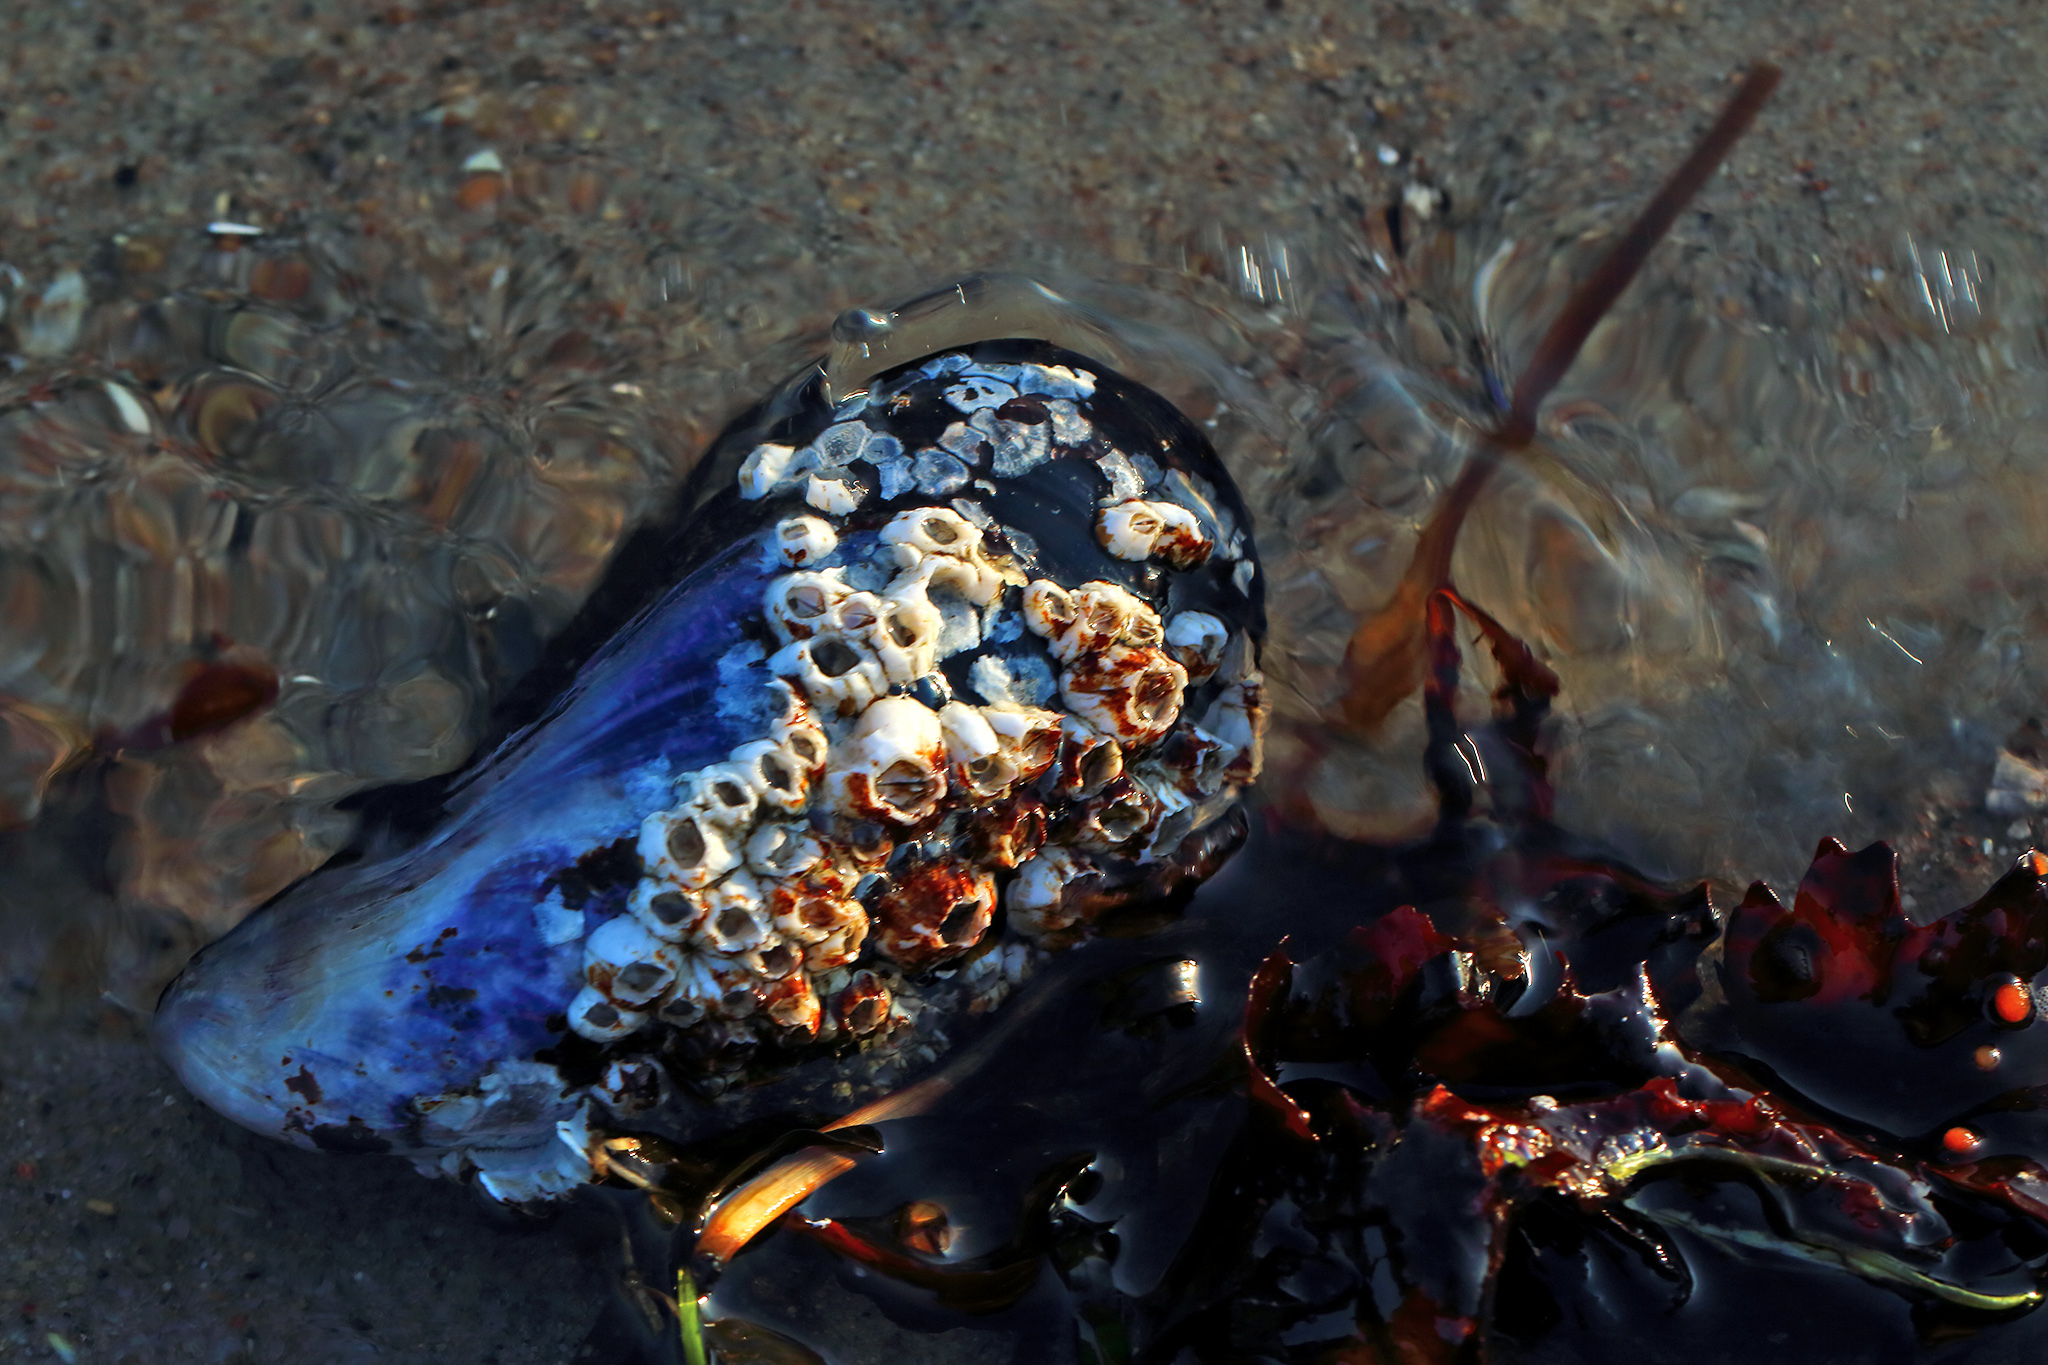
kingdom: Animalia
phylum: Mollusca
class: Bivalvia
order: Mytilida
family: Mytilidae
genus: Mytilus
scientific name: Mytilus edulis
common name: Blue mussel
